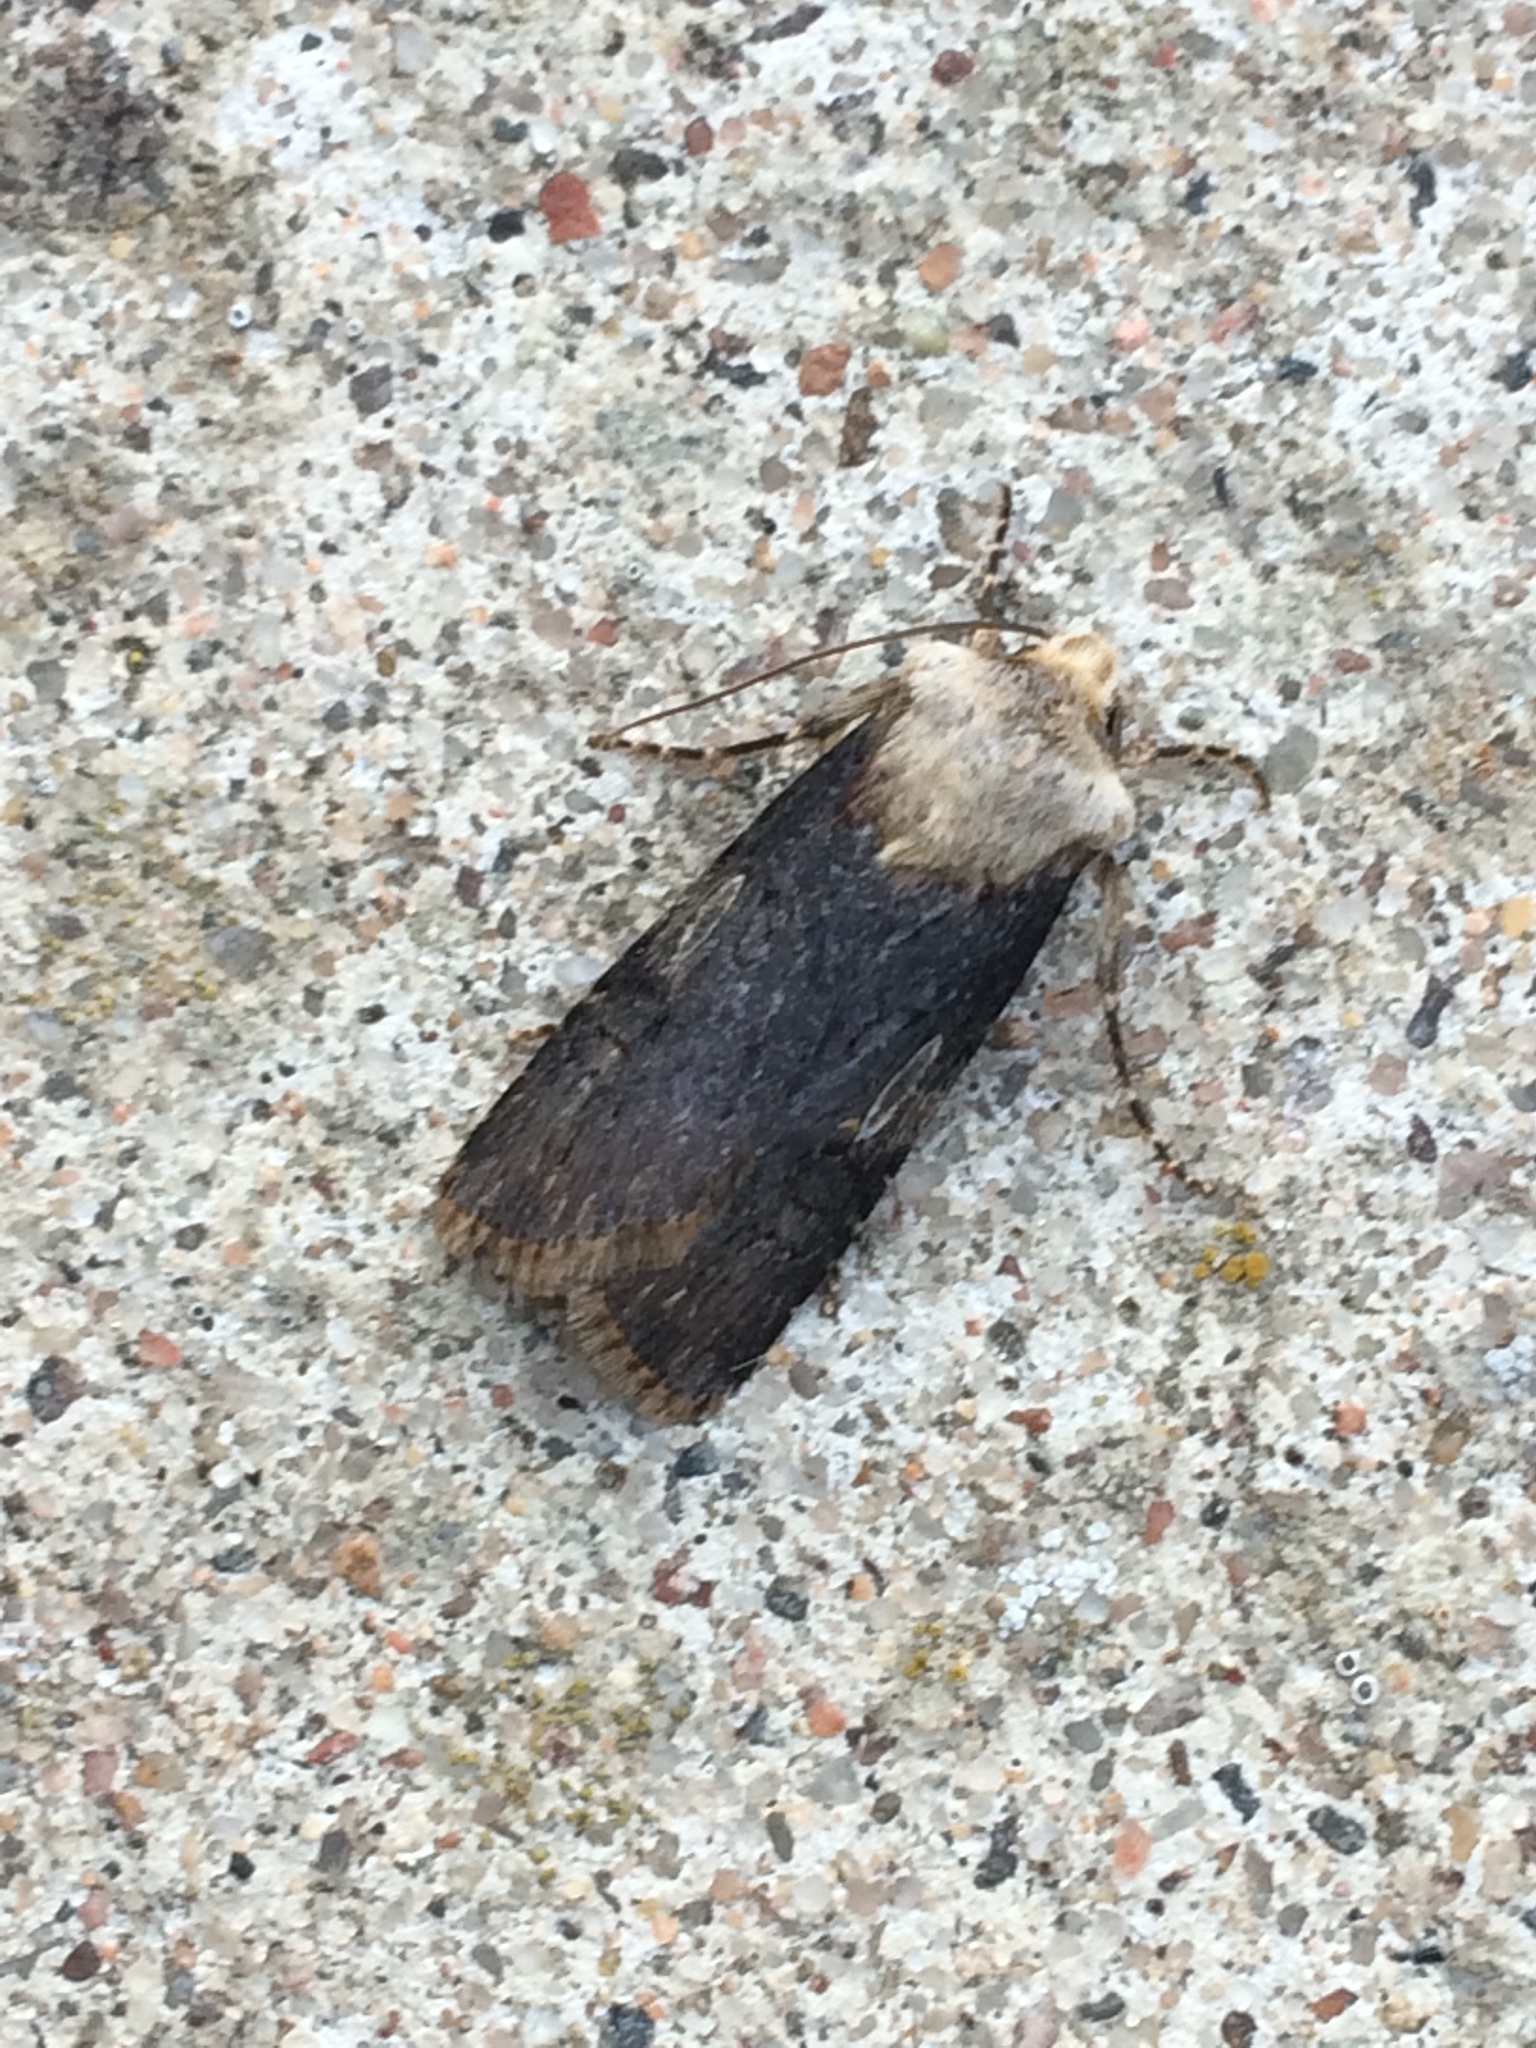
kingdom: Animalia
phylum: Arthropoda
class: Insecta
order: Lepidoptera
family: Noctuidae
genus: Agrotis
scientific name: Agrotis puta
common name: Shuttle-shaped dart
